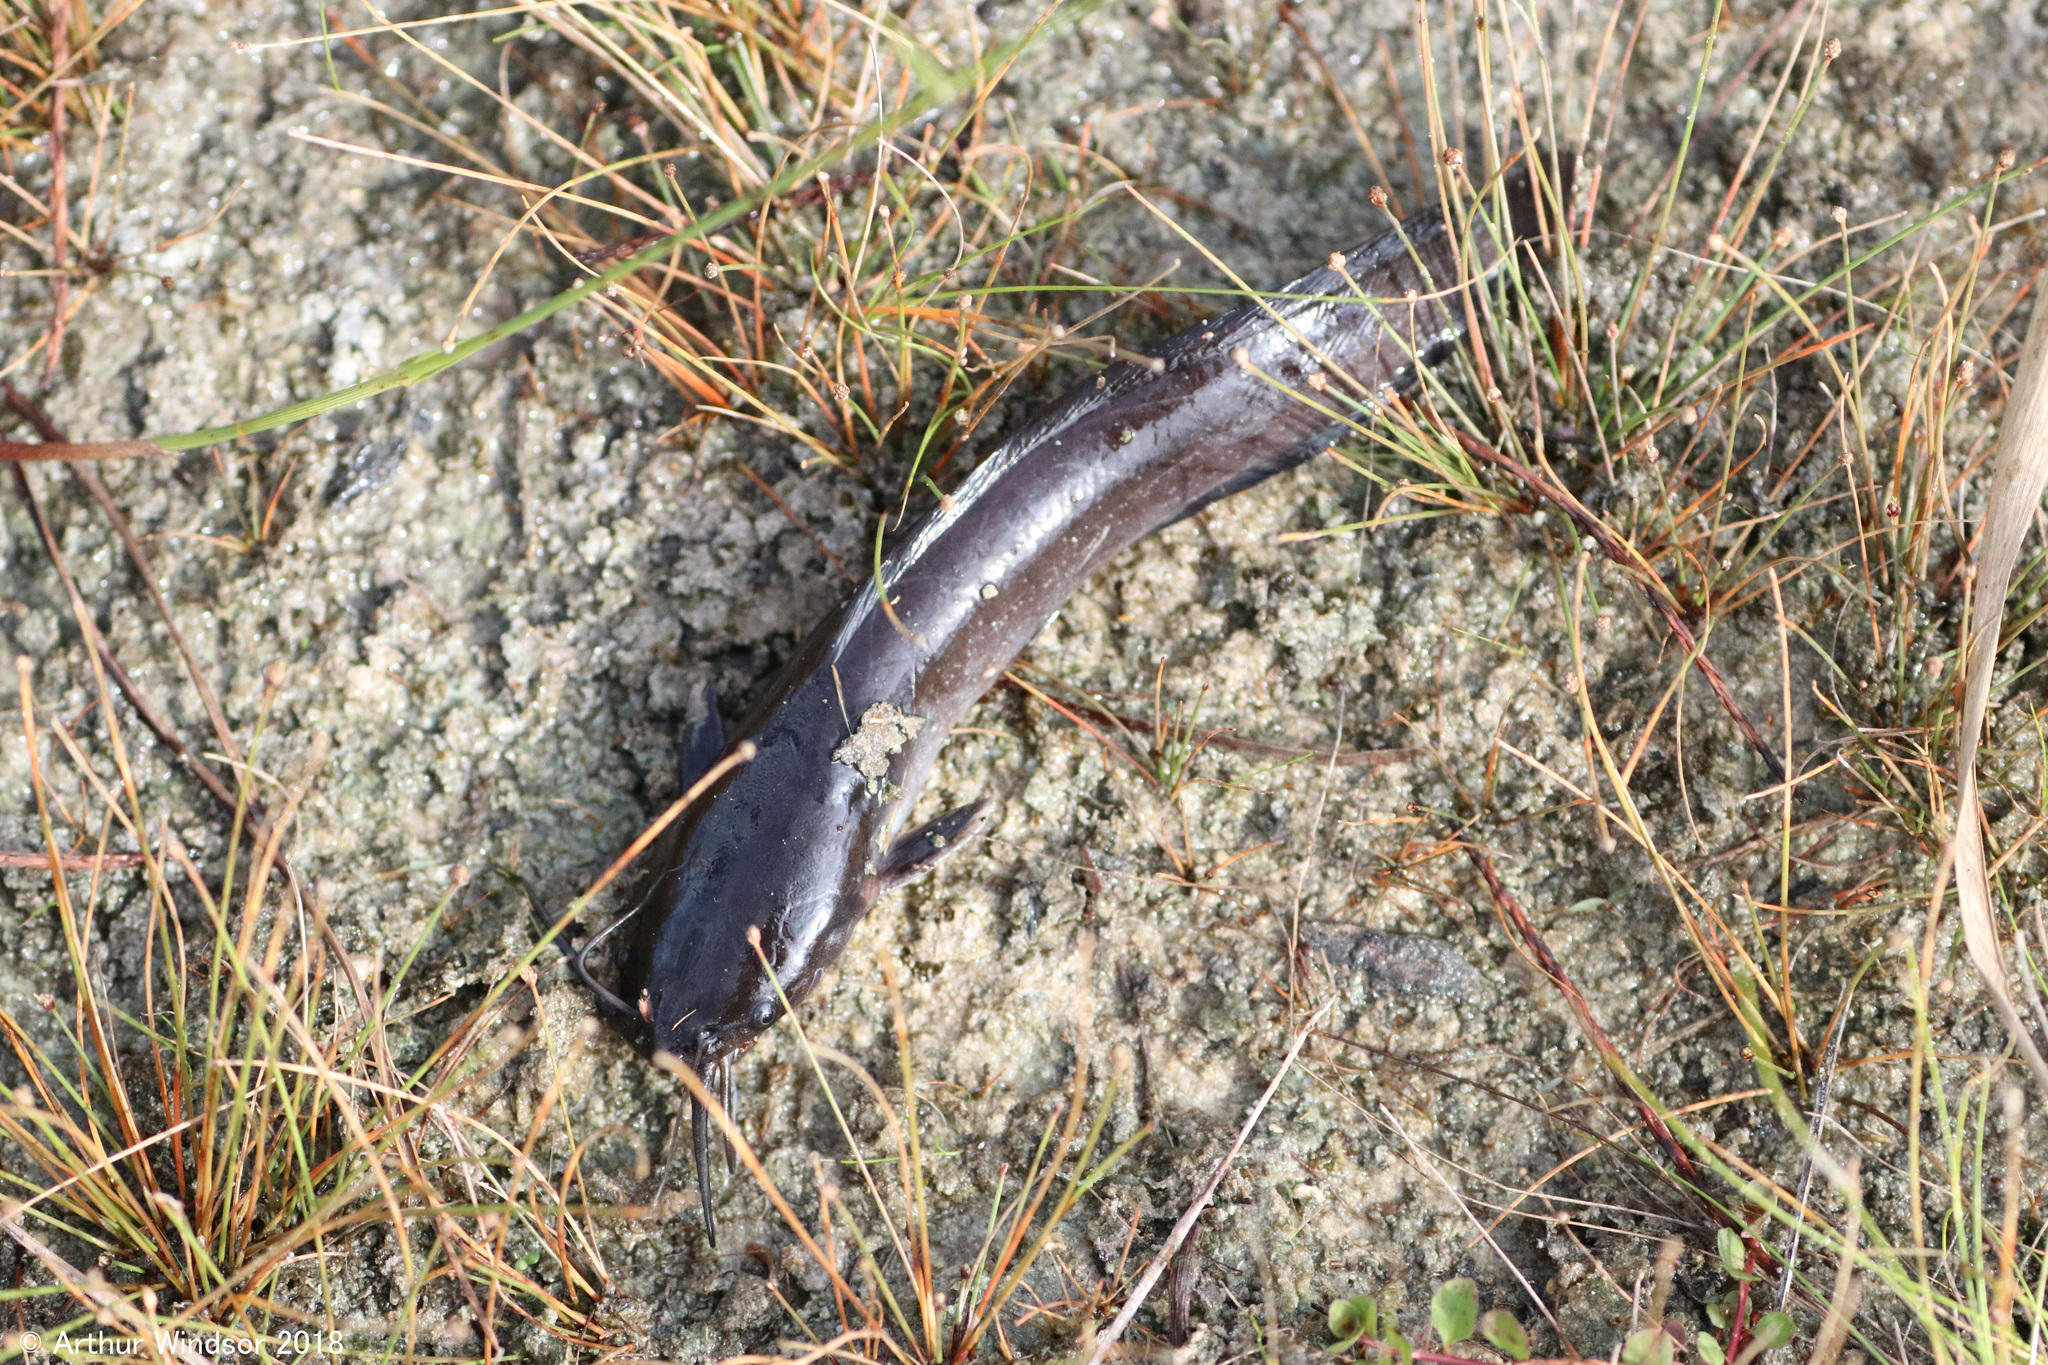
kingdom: Animalia
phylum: Chordata
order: Siluriformes
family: Clariidae
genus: Clarias
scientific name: Clarias batrachus
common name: Walking catfish
